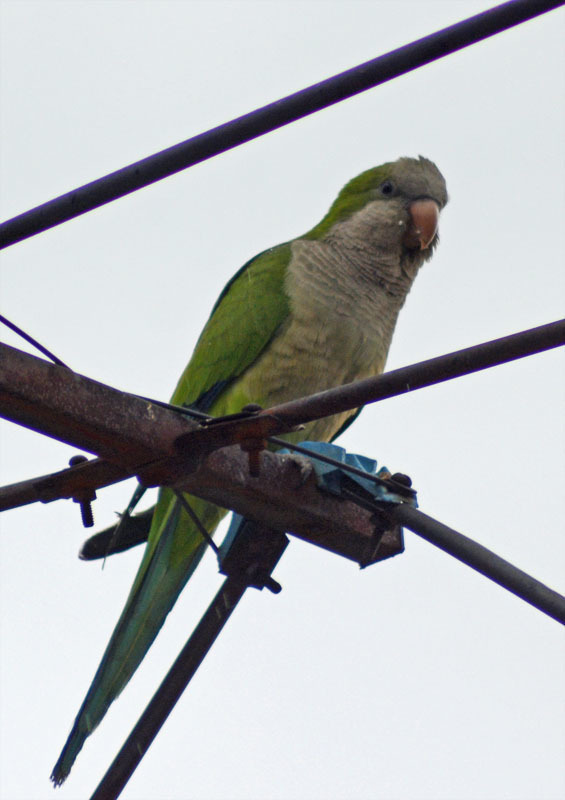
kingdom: Animalia
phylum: Chordata
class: Aves
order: Psittaciformes
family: Psittacidae
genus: Myiopsitta
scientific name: Myiopsitta monachus
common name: Monk parakeet
